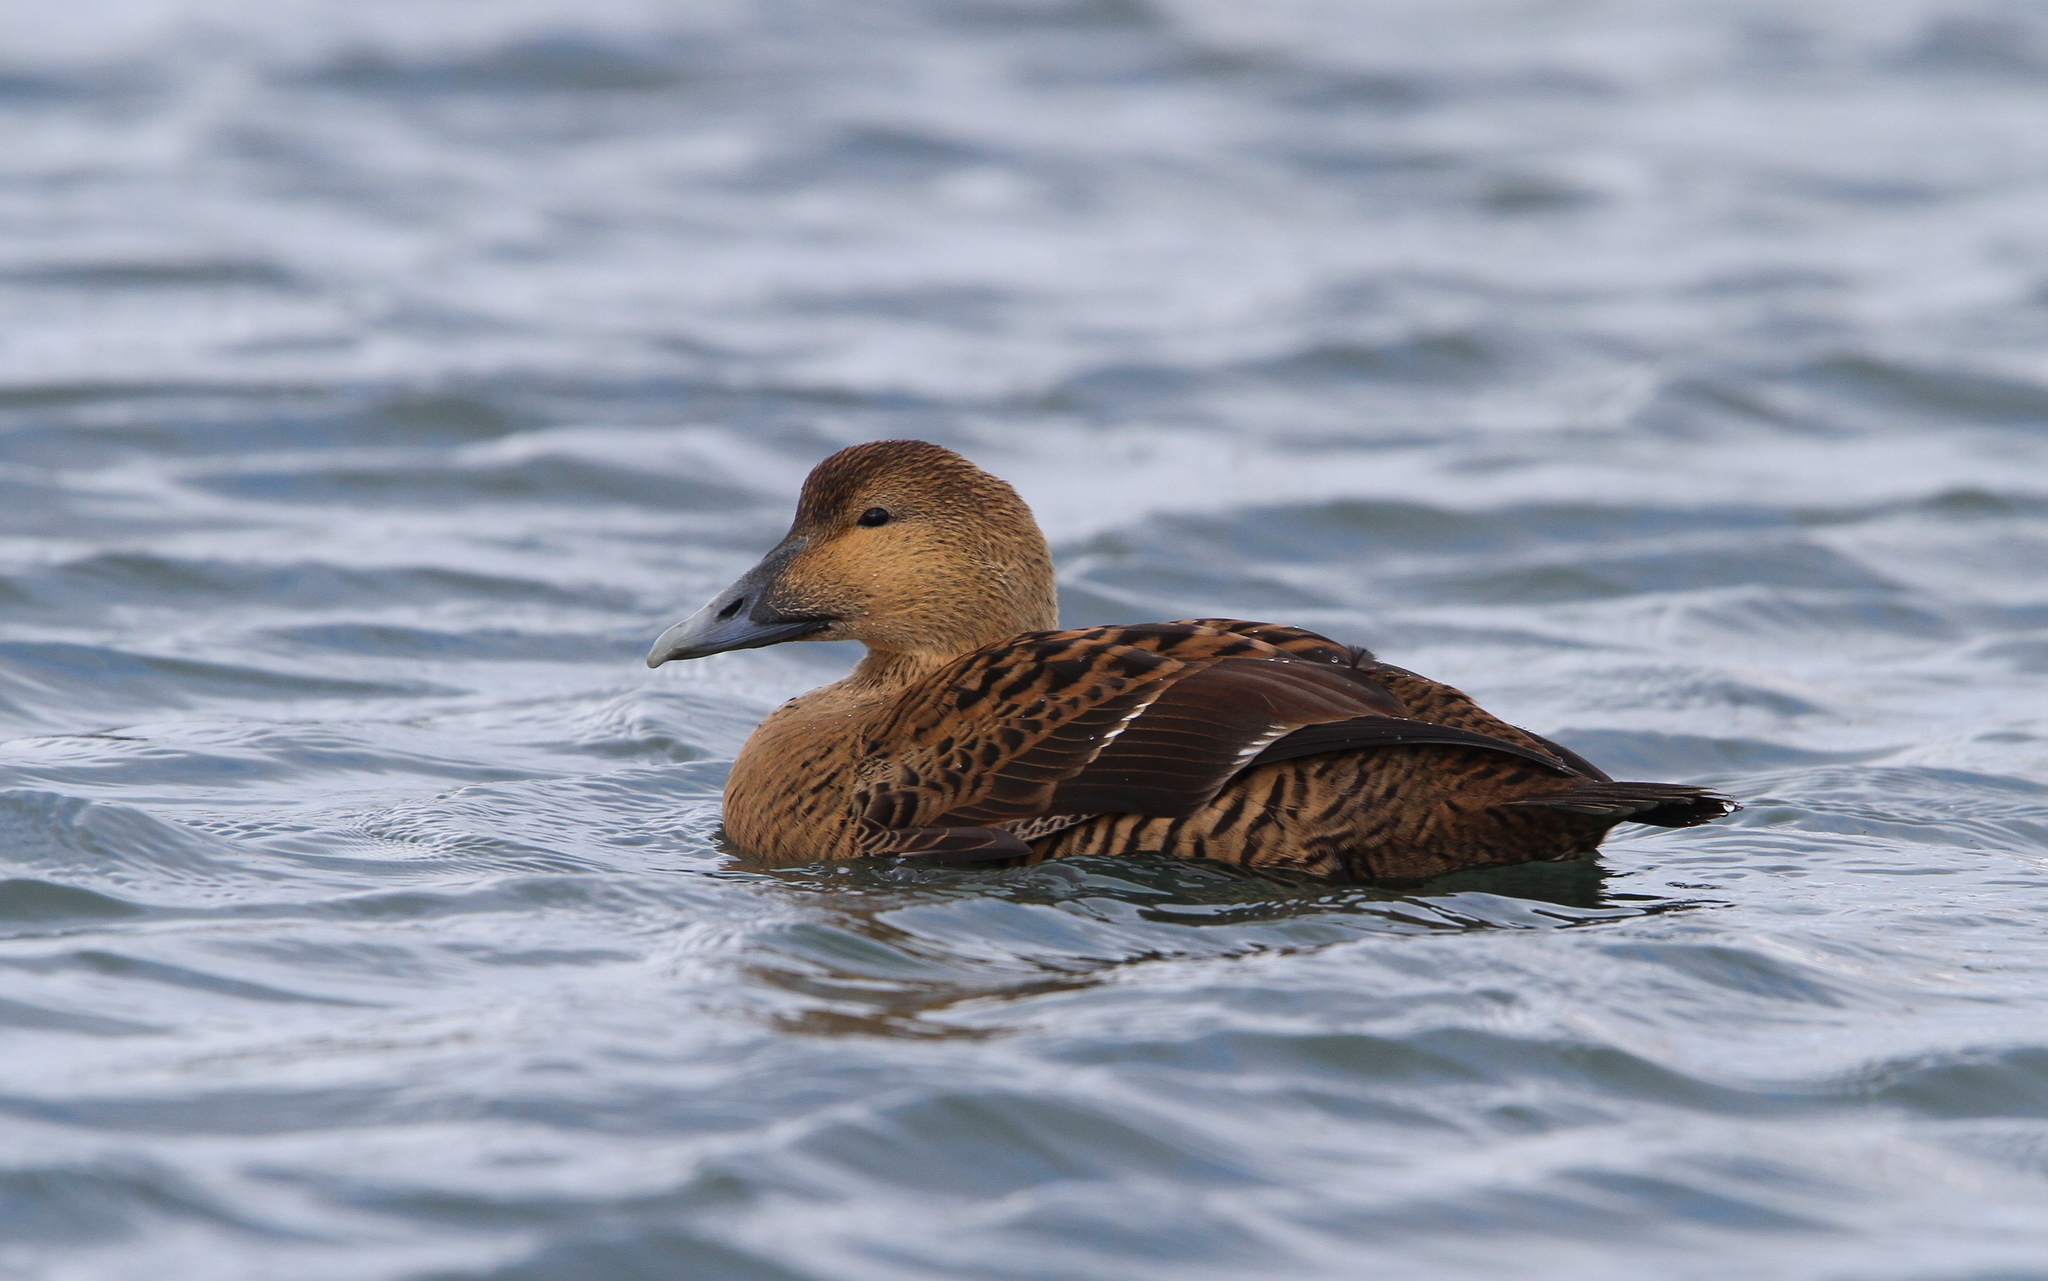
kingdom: Animalia
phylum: Chordata
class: Aves
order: Anseriformes
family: Anatidae
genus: Somateria
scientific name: Somateria mollissima
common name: Common eider
